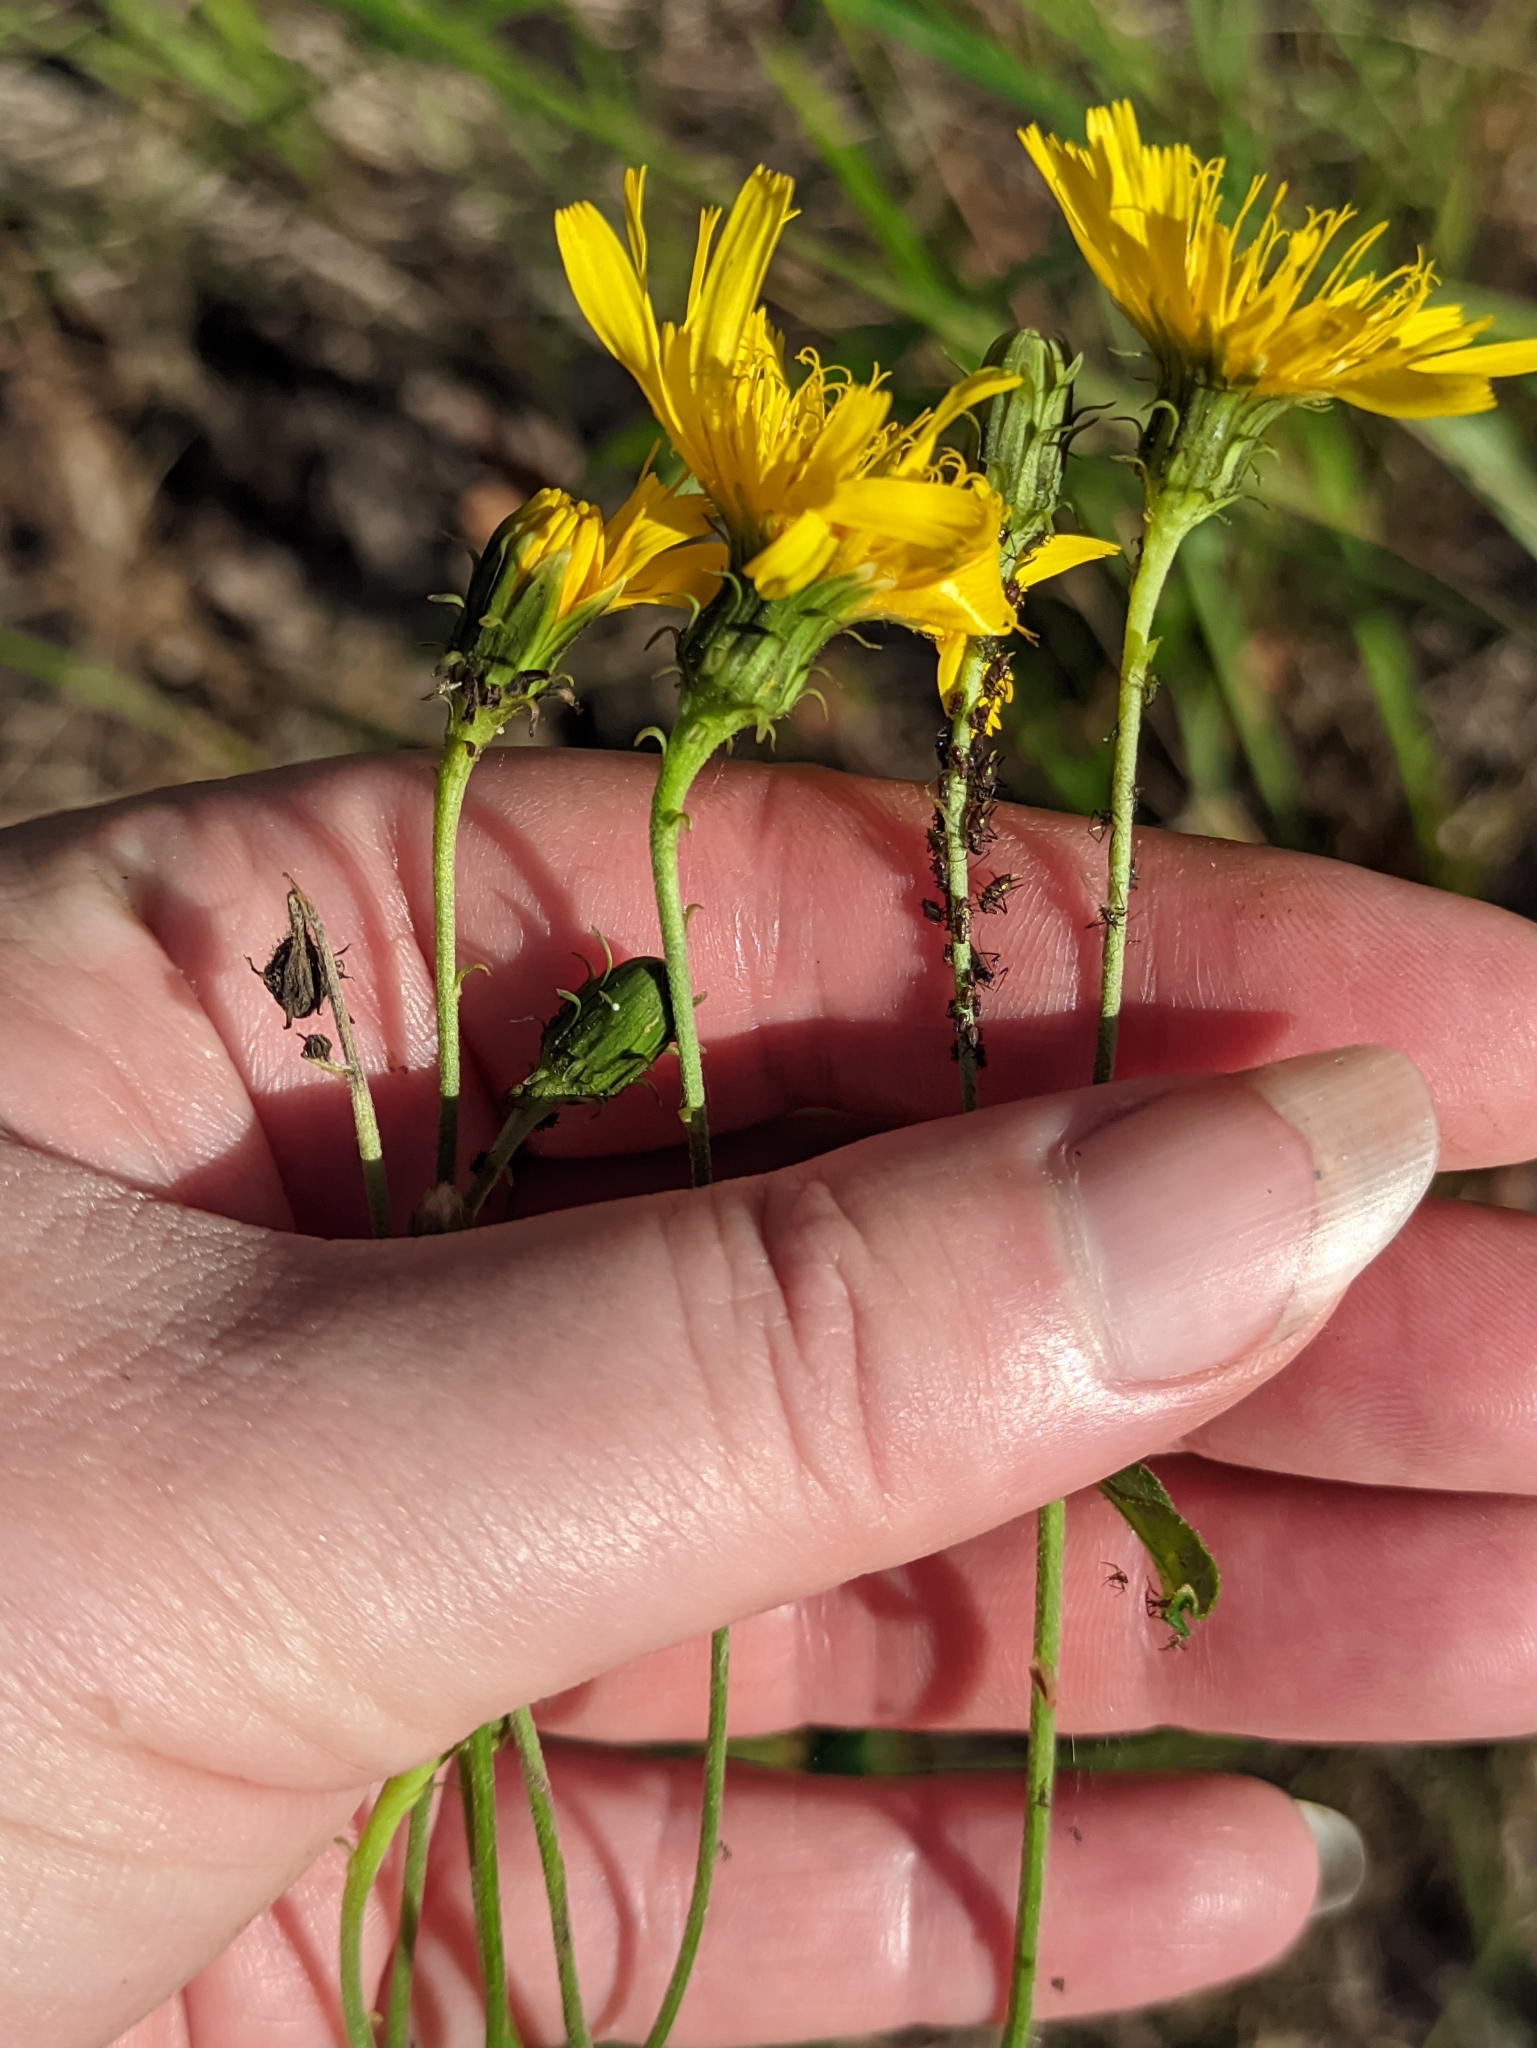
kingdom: Plantae
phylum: Tracheophyta
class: Magnoliopsida
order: Asterales
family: Asteraceae
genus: Hieracium
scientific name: Hieracium umbellatum
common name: Northern hawkweed
